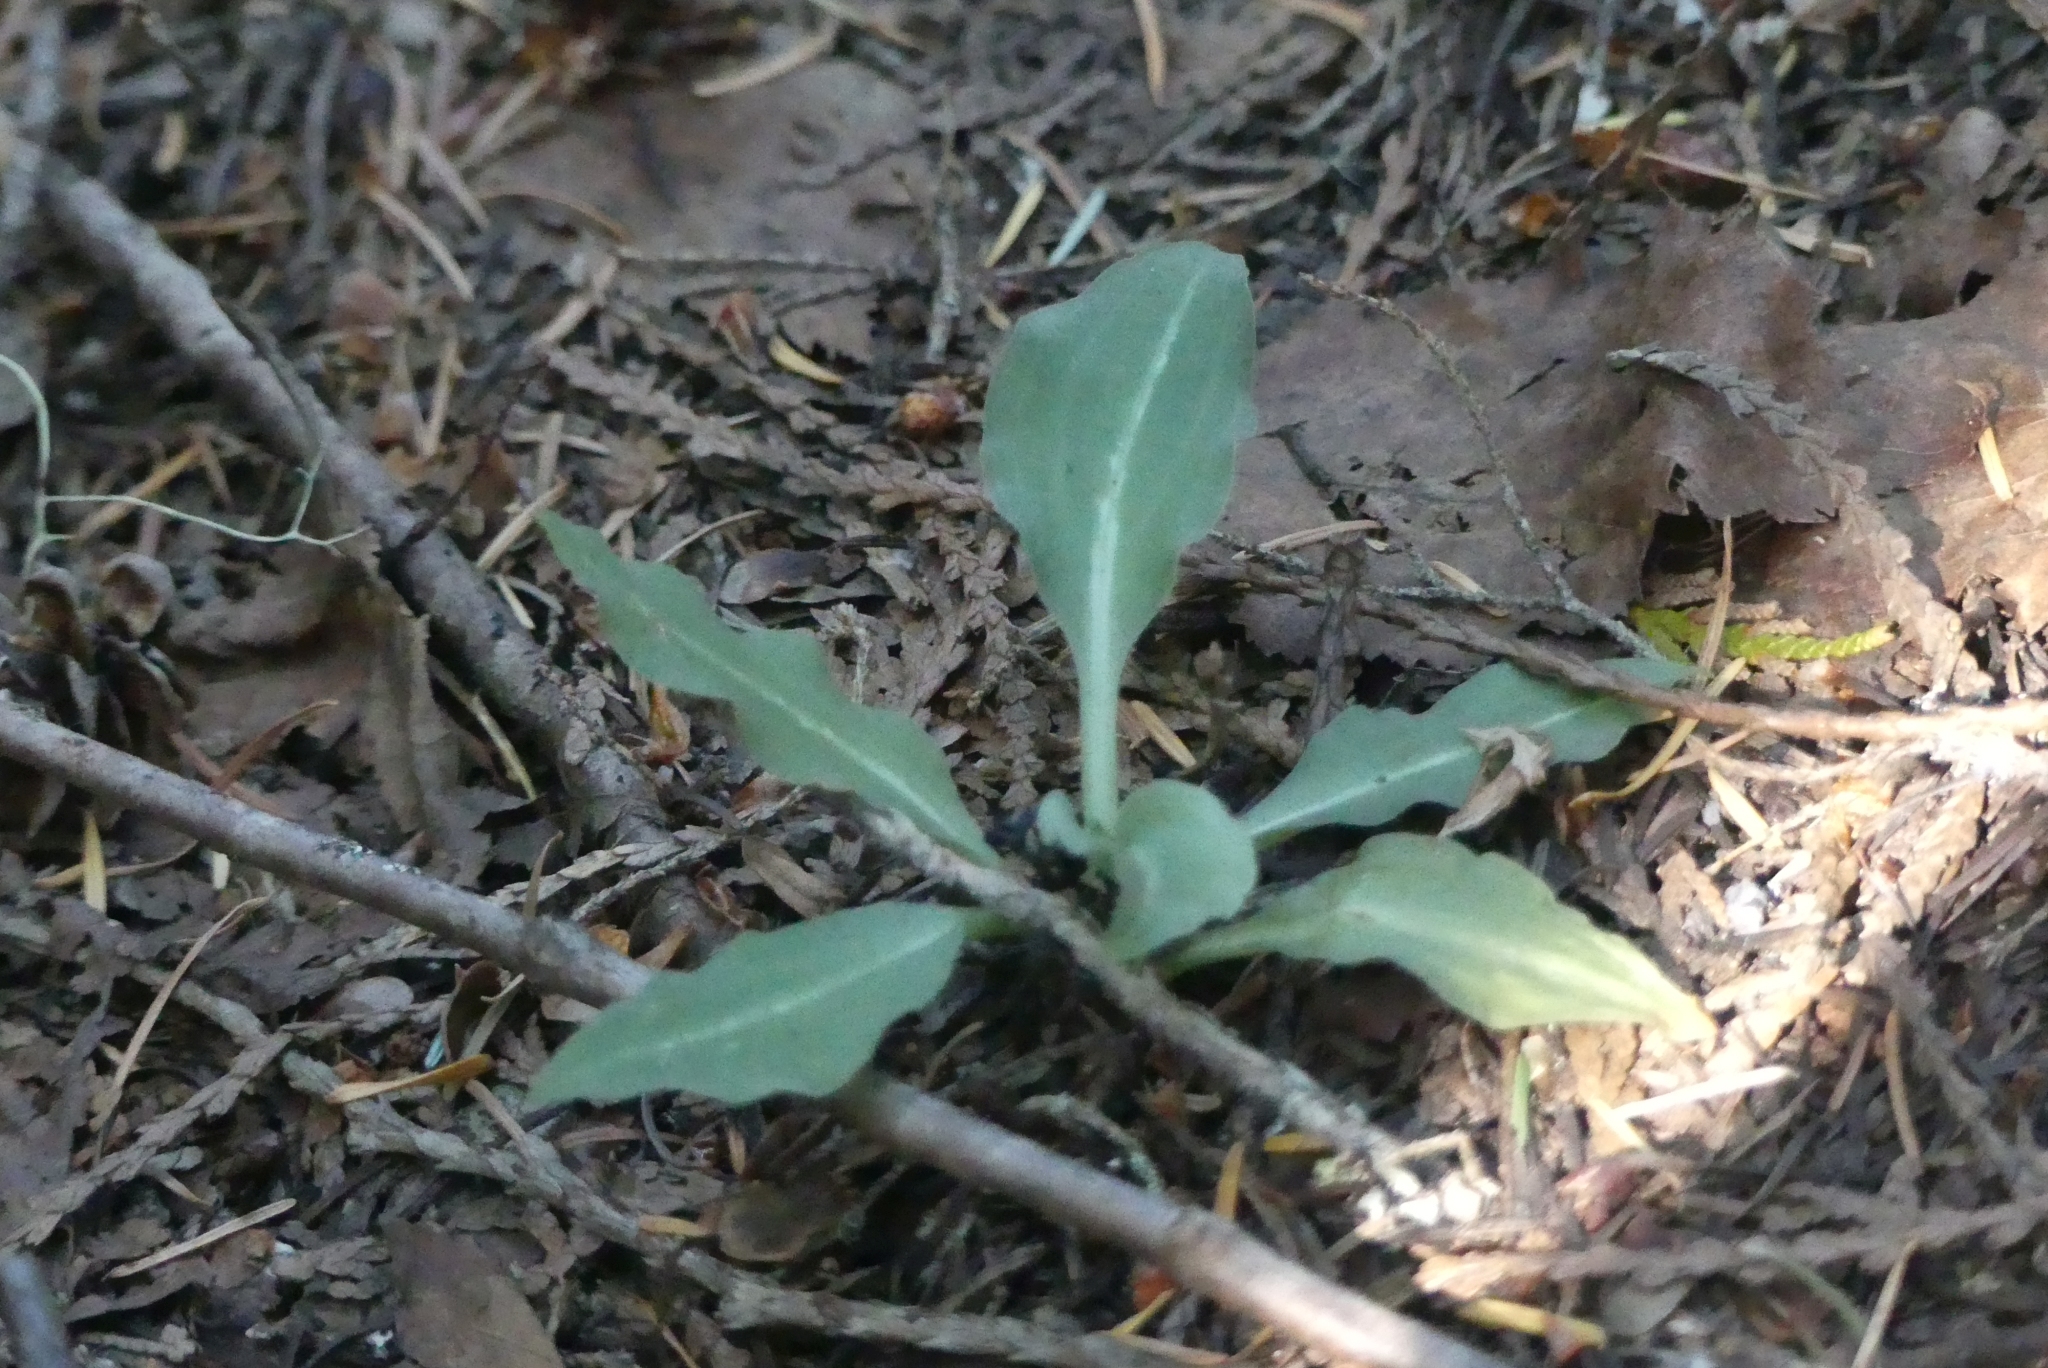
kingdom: Plantae
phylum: Tracheophyta
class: Liliopsida
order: Asparagales
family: Orchidaceae
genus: Goodyera
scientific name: Goodyera oblongifolia
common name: Giant rattlesnake-plantain
